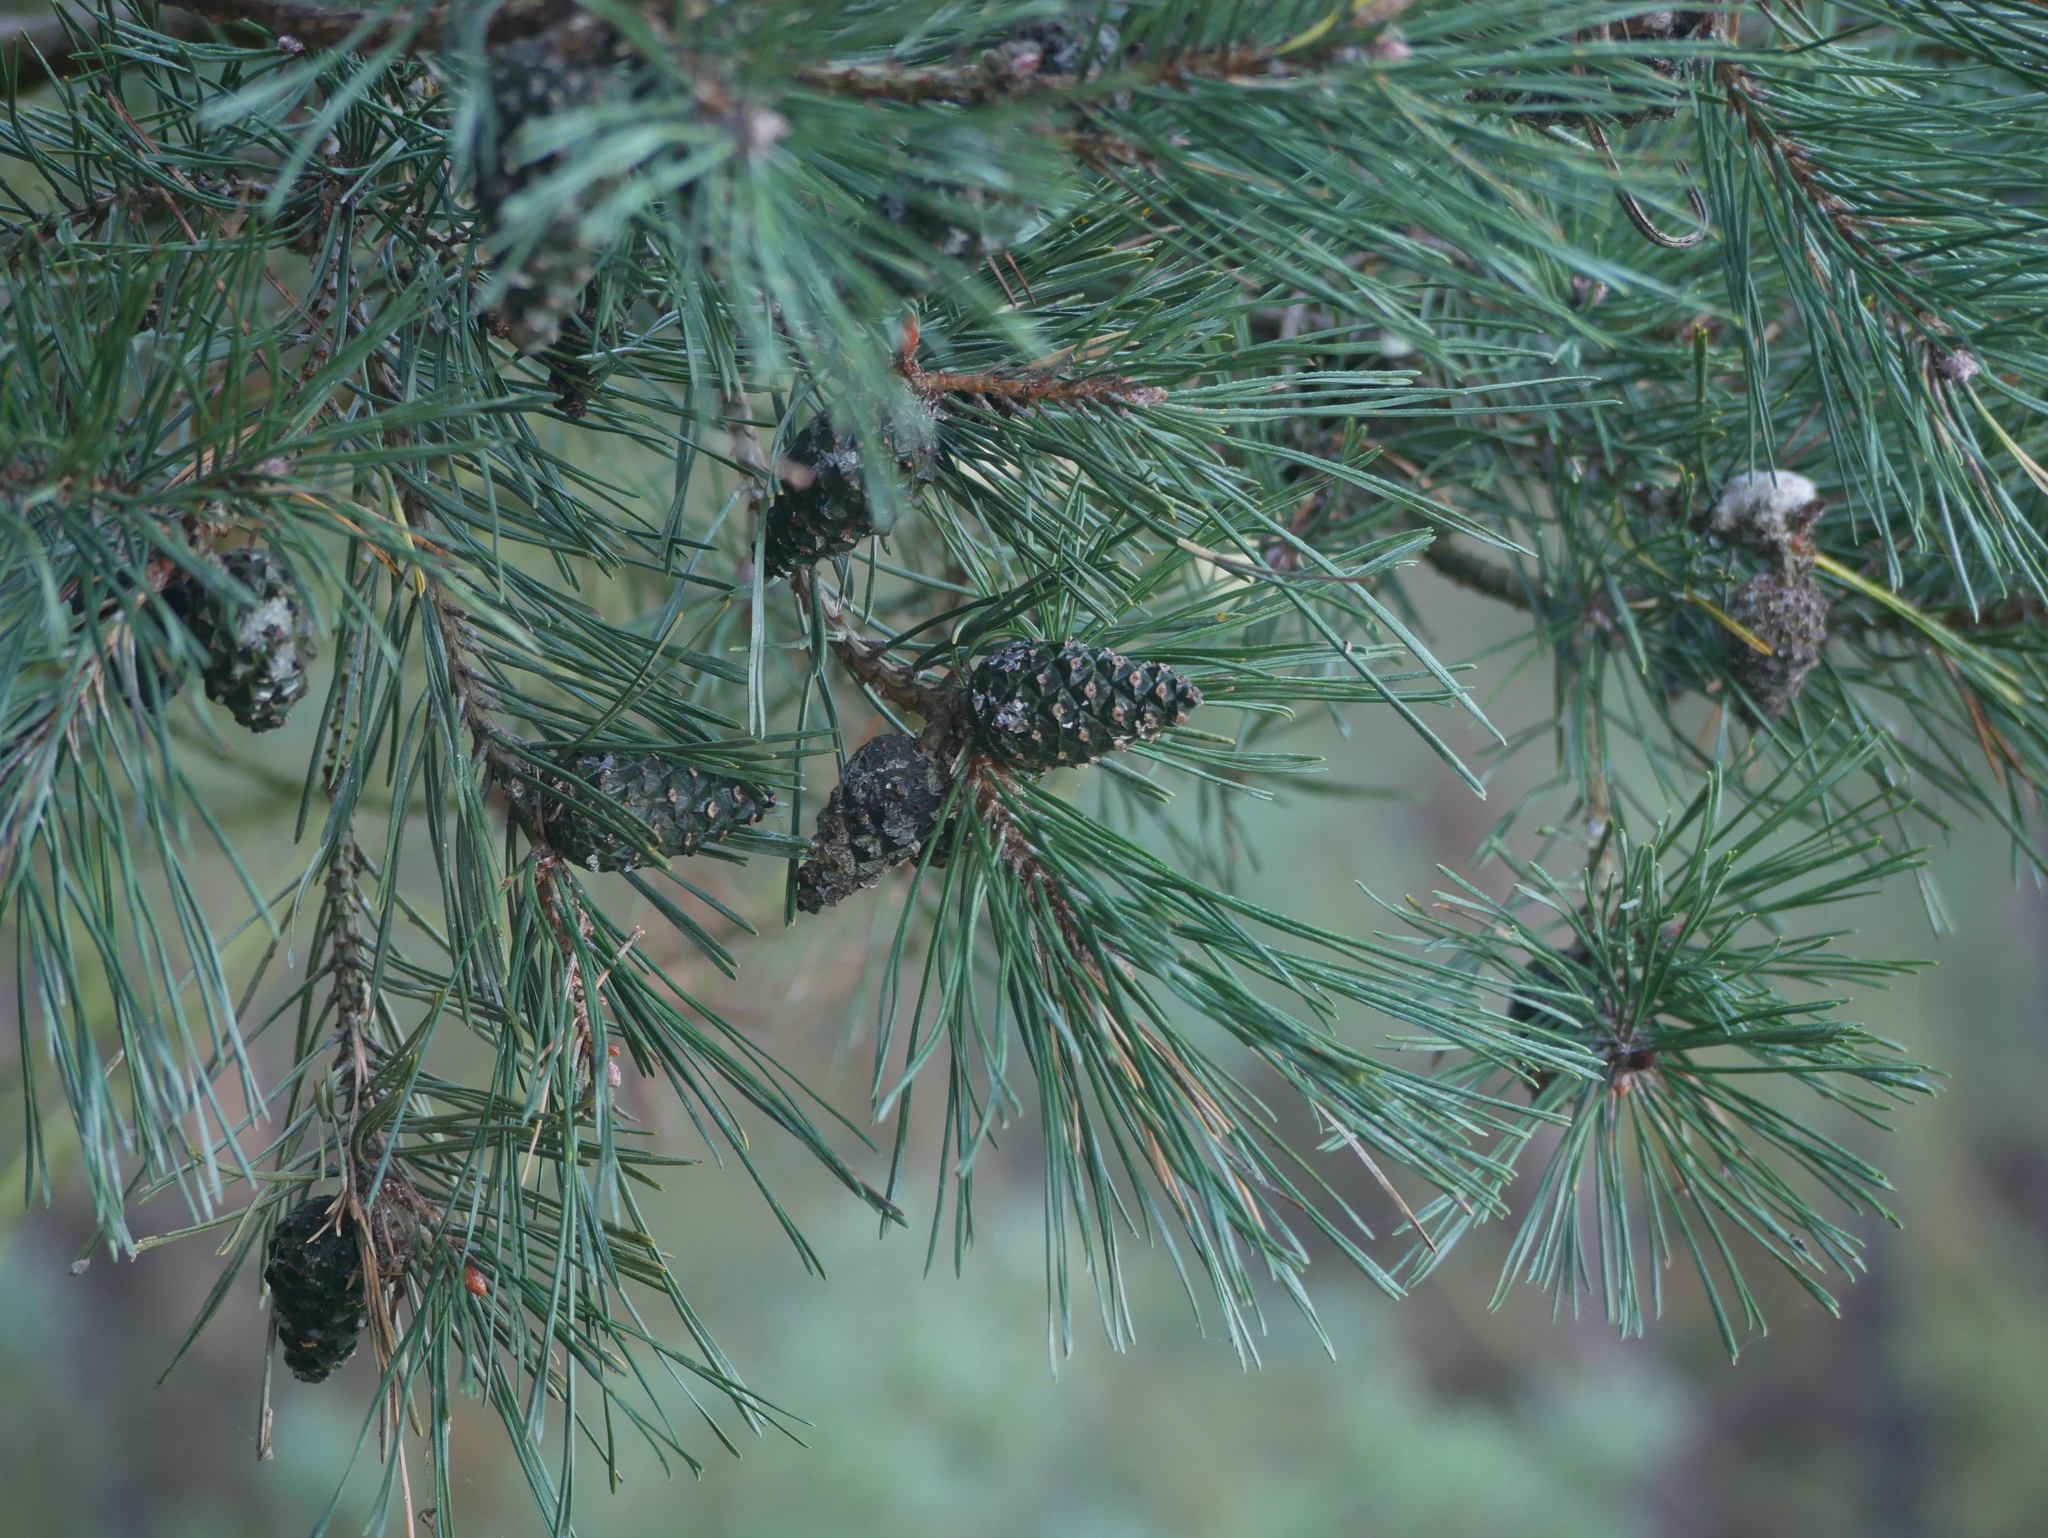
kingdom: Plantae
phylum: Tracheophyta
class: Pinopsida
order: Pinales
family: Pinaceae
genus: Pinus
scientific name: Pinus sylvestris
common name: Scots pine
